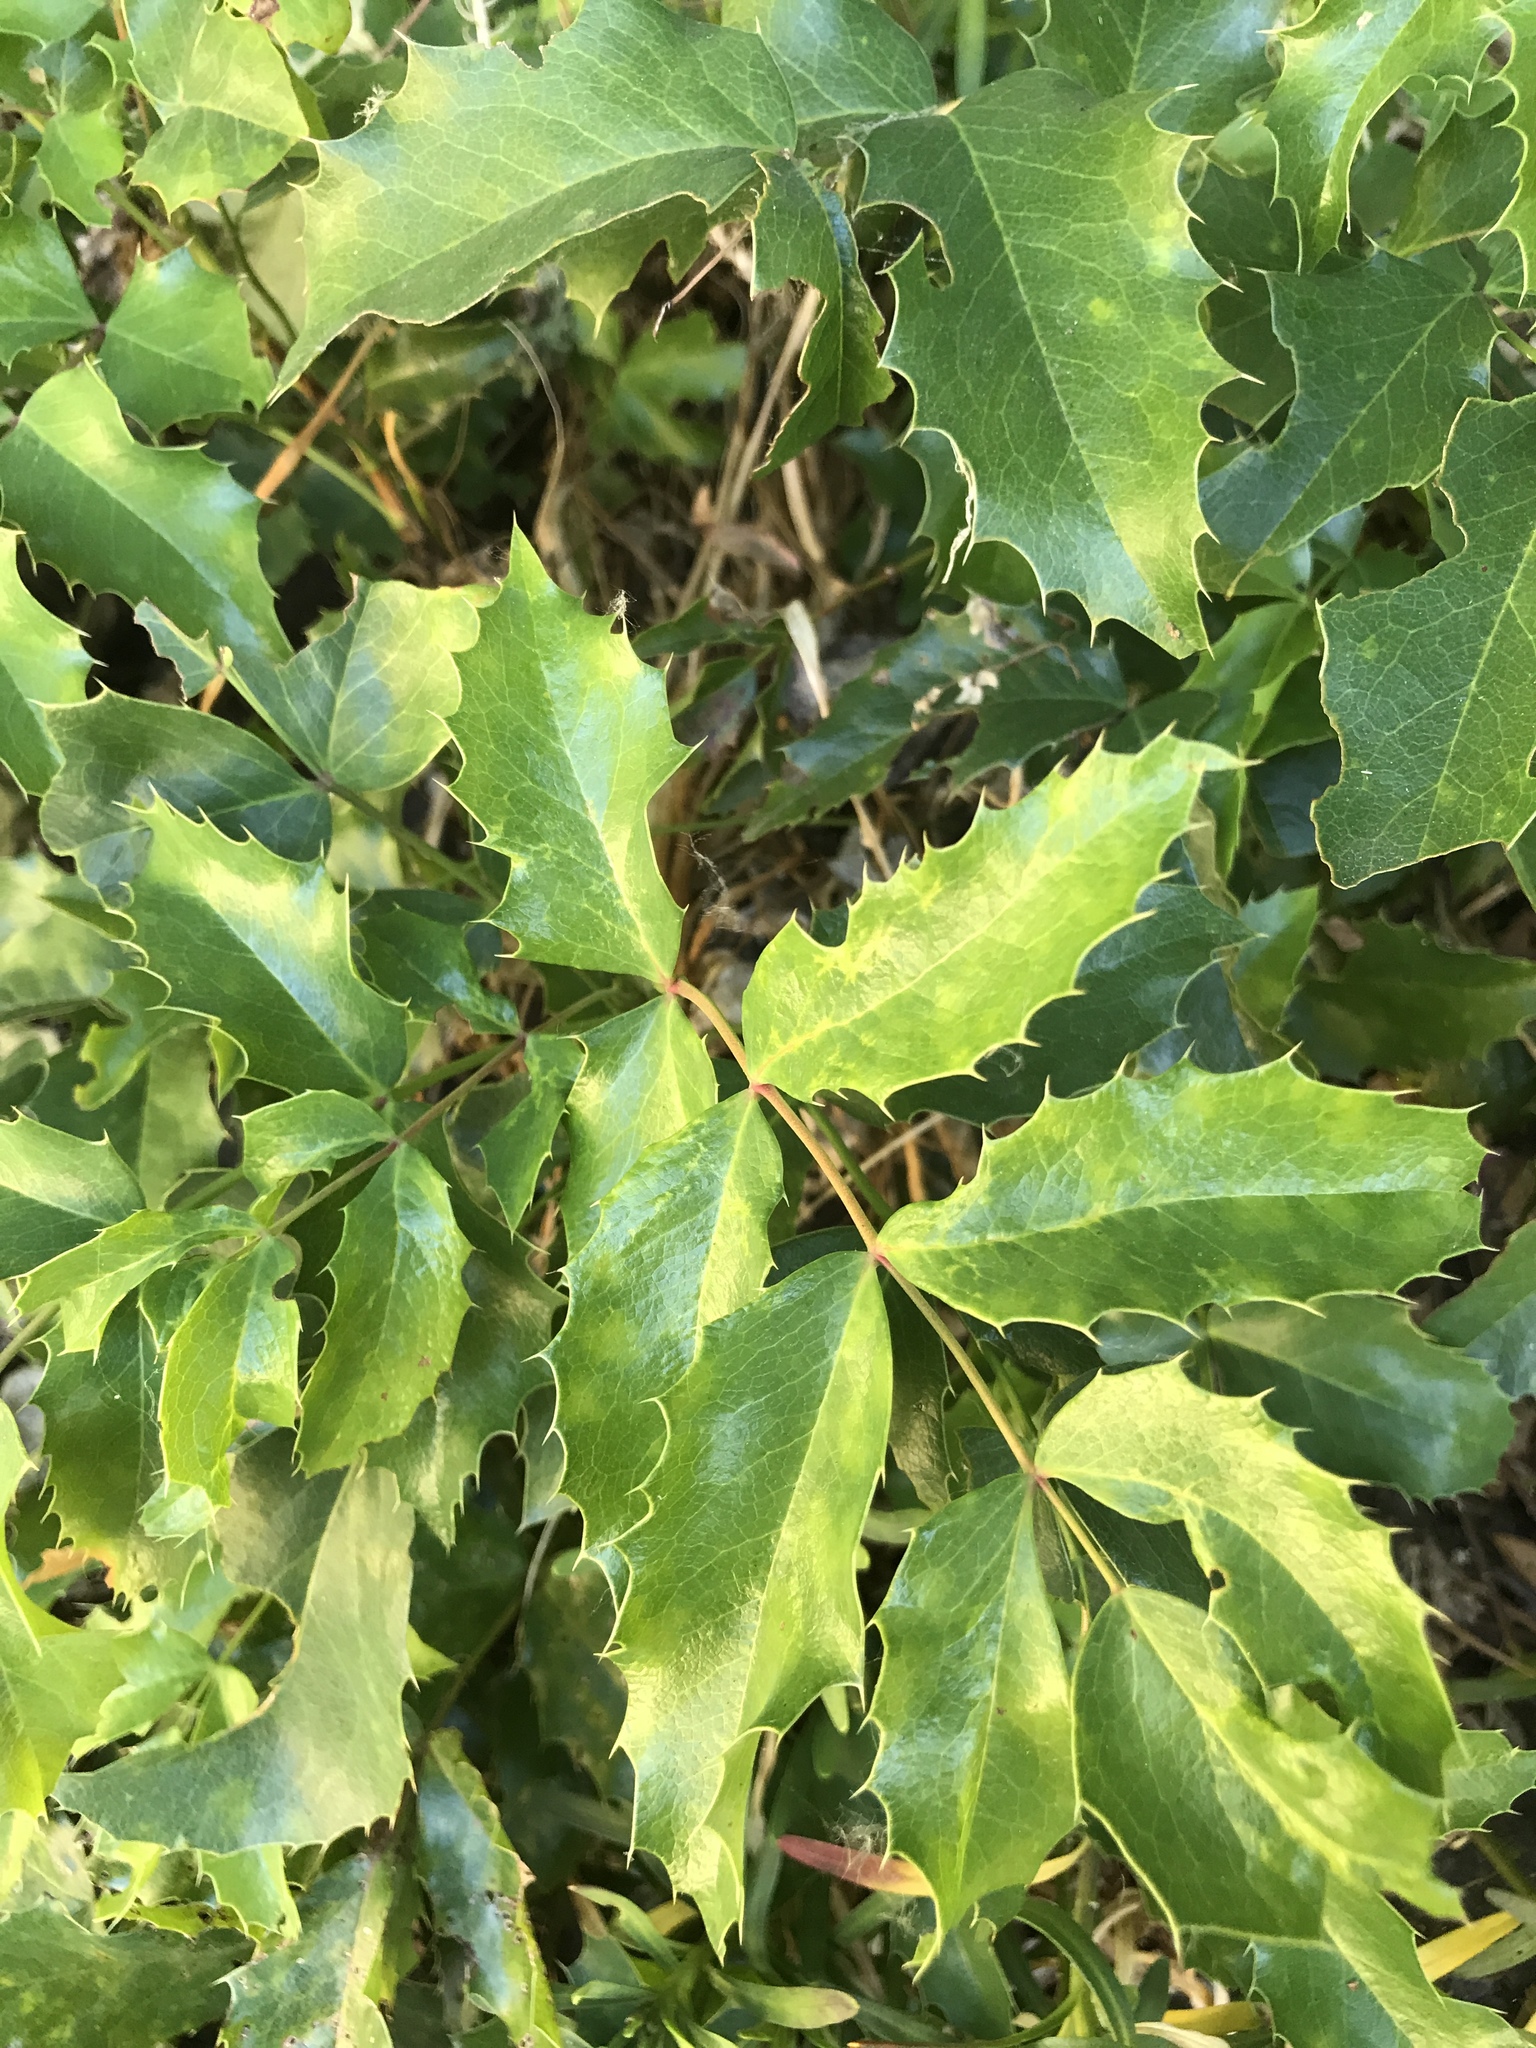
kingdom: Plantae
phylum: Tracheophyta
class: Magnoliopsida
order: Ranunculales
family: Berberidaceae
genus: Mahonia
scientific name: Mahonia aquifolium
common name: Oregon-grape
